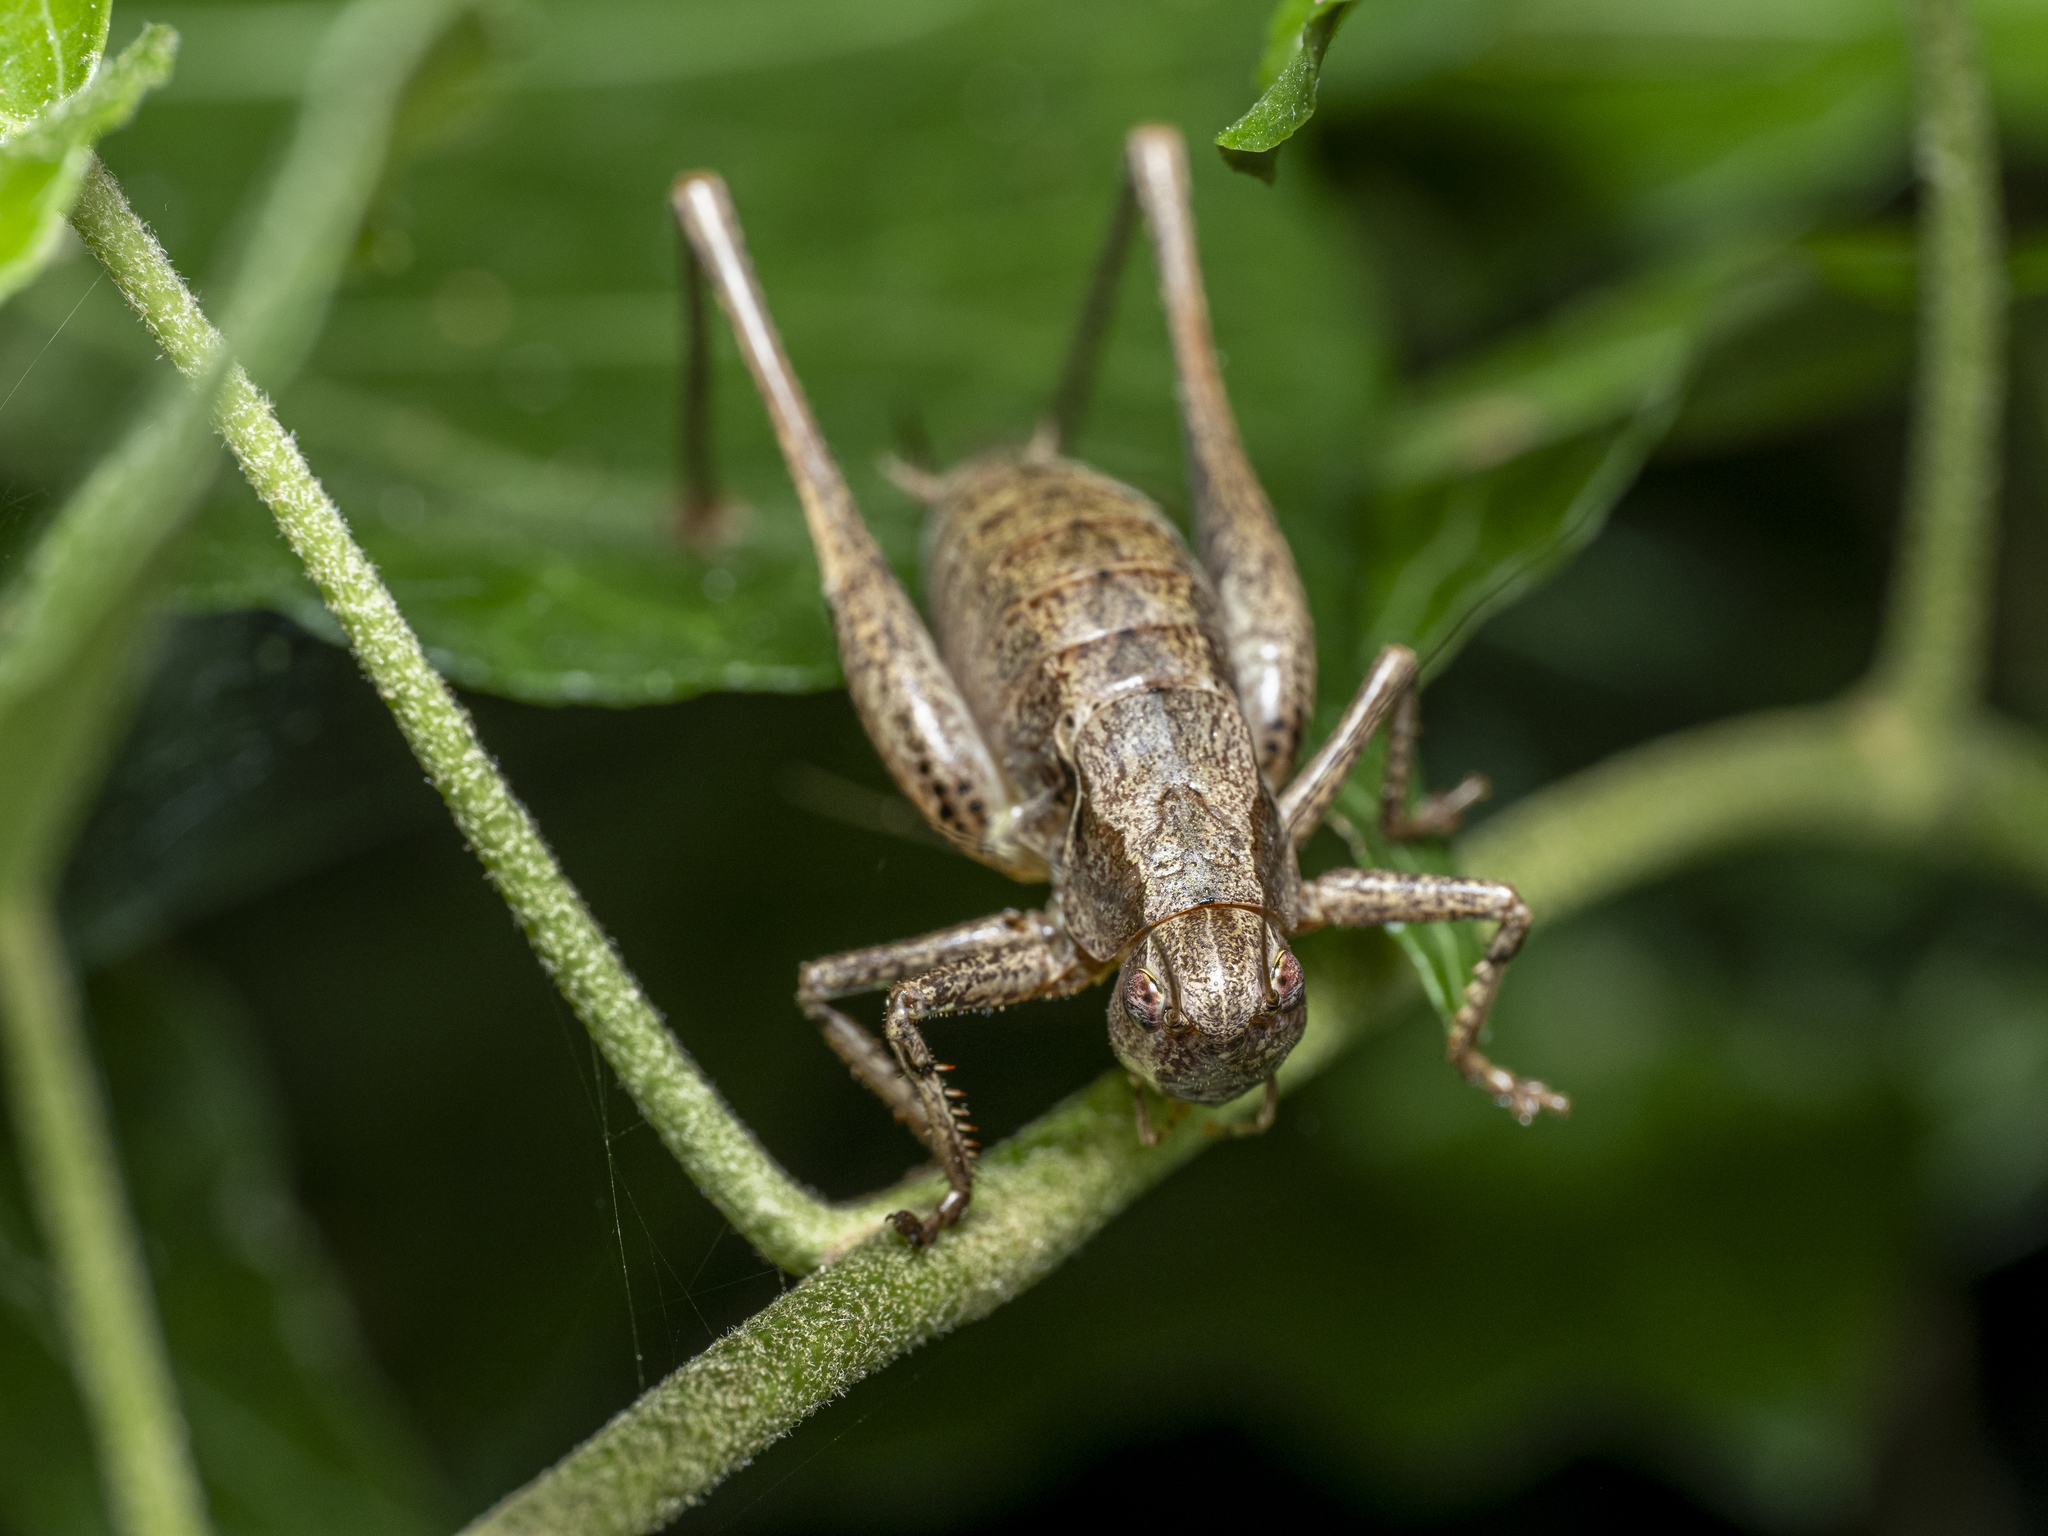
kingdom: Animalia
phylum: Arthropoda
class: Insecta
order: Orthoptera
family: Tettigoniidae
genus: Pholidoptera
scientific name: Pholidoptera griseoaptera
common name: Dark bush-cricket
